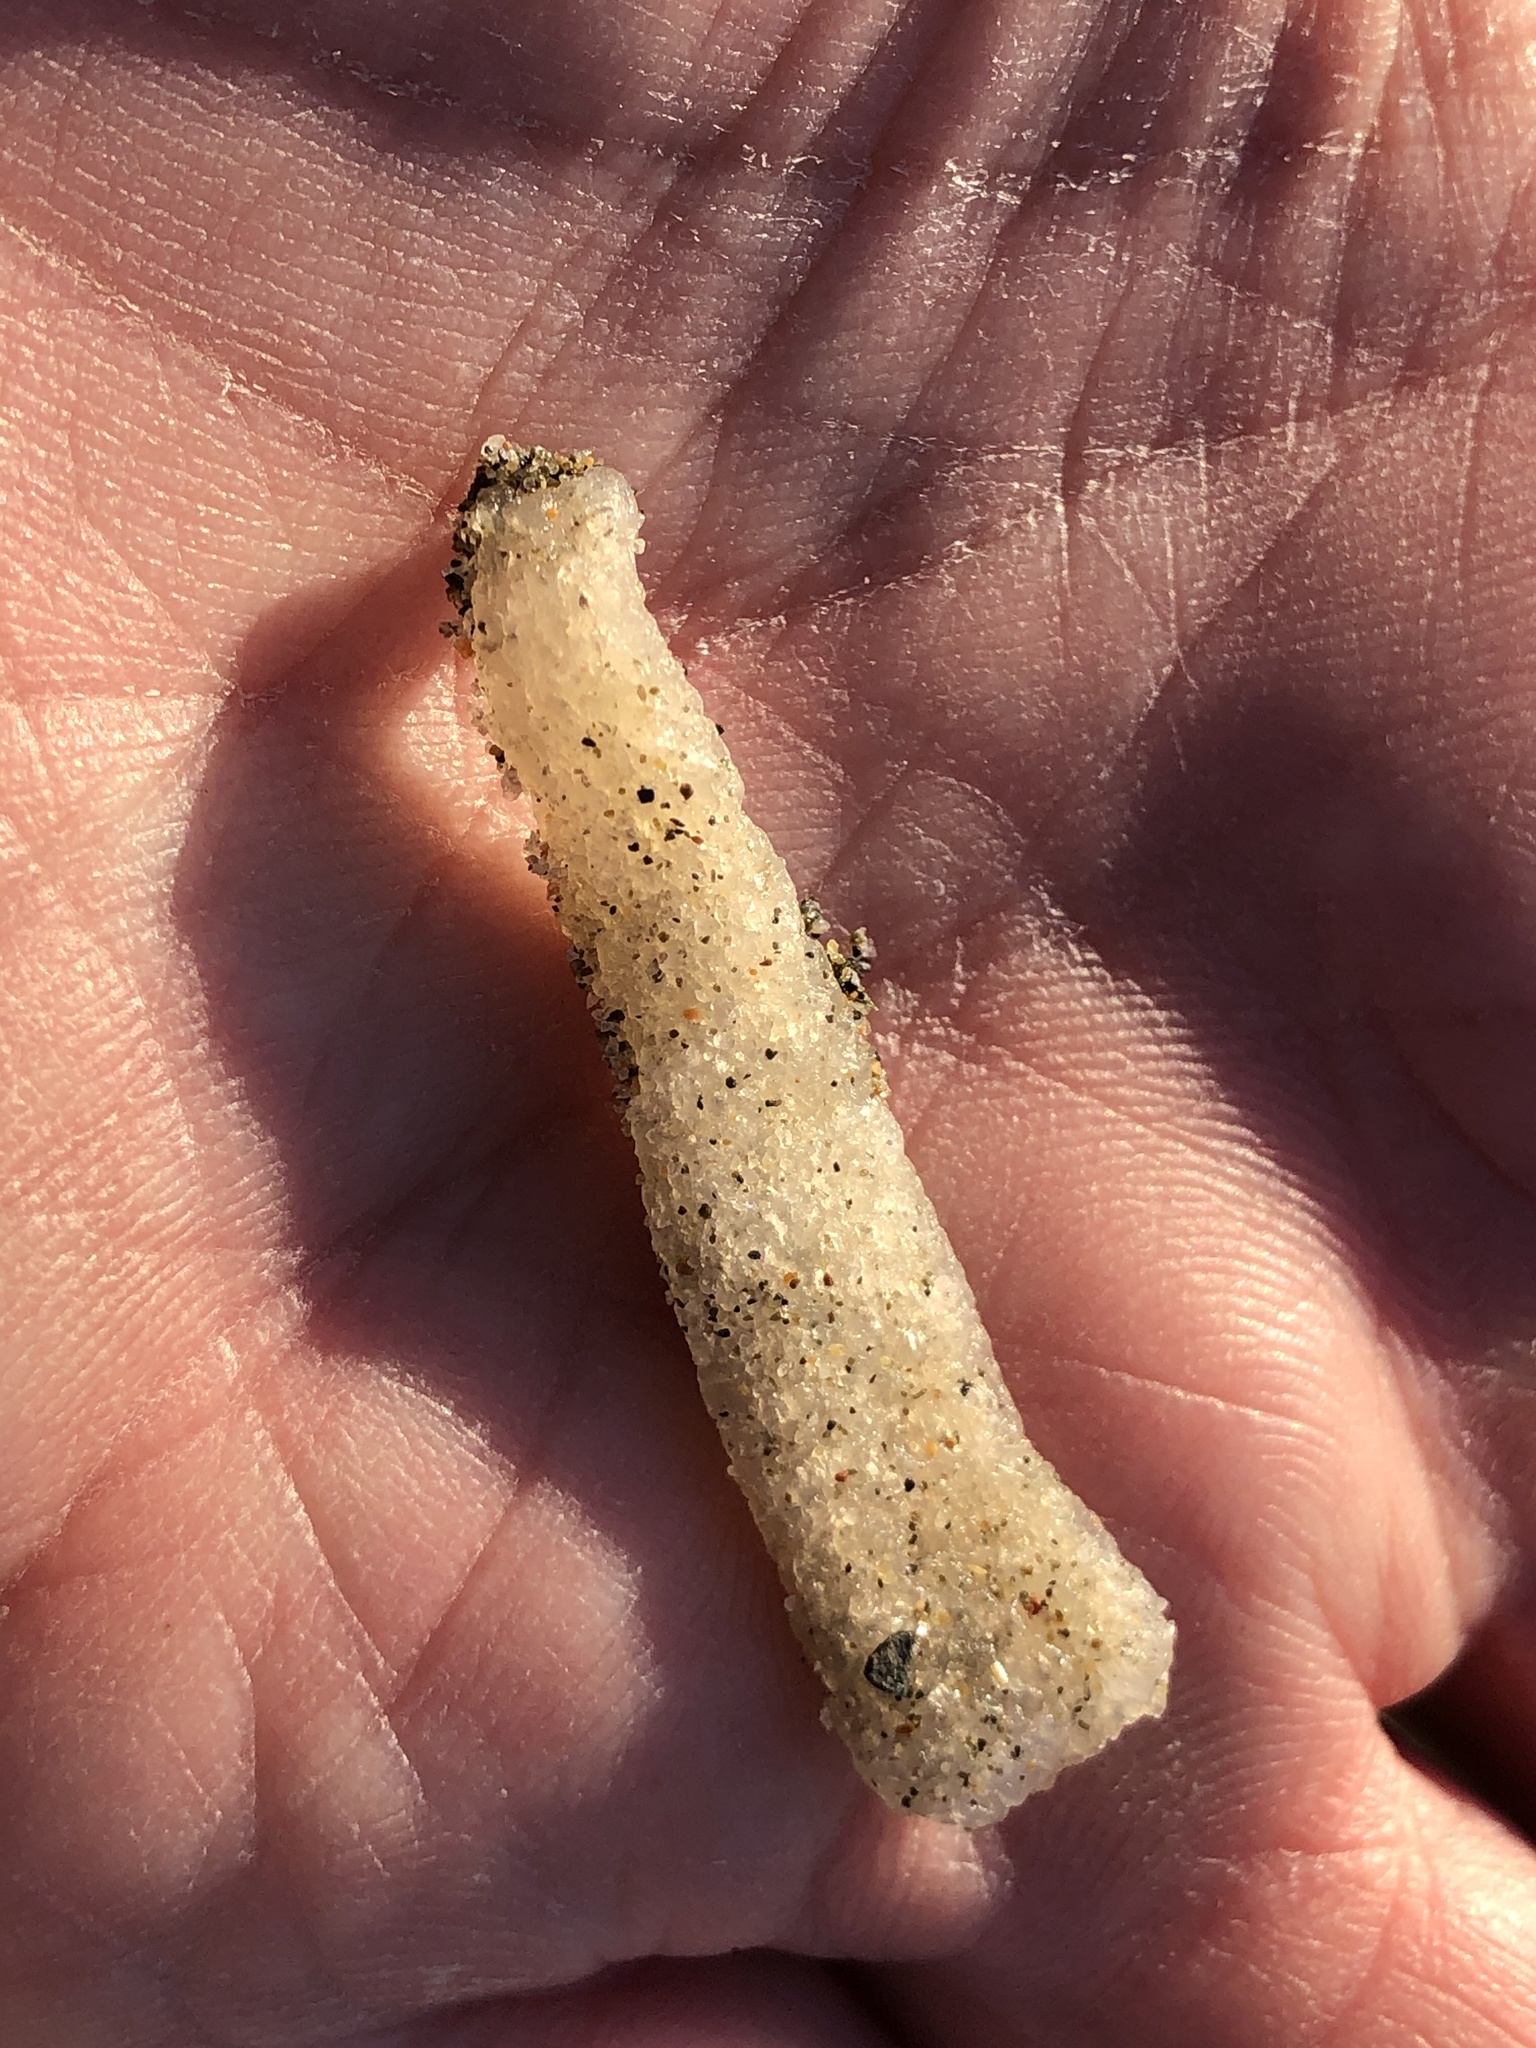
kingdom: Animalia
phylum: Chordata
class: Thaliacea
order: Pyrosomatida
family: Pyrosomatidae
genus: Pyrosoma
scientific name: Pyrosoma atlanticum
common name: Atlantic pyrosomes
